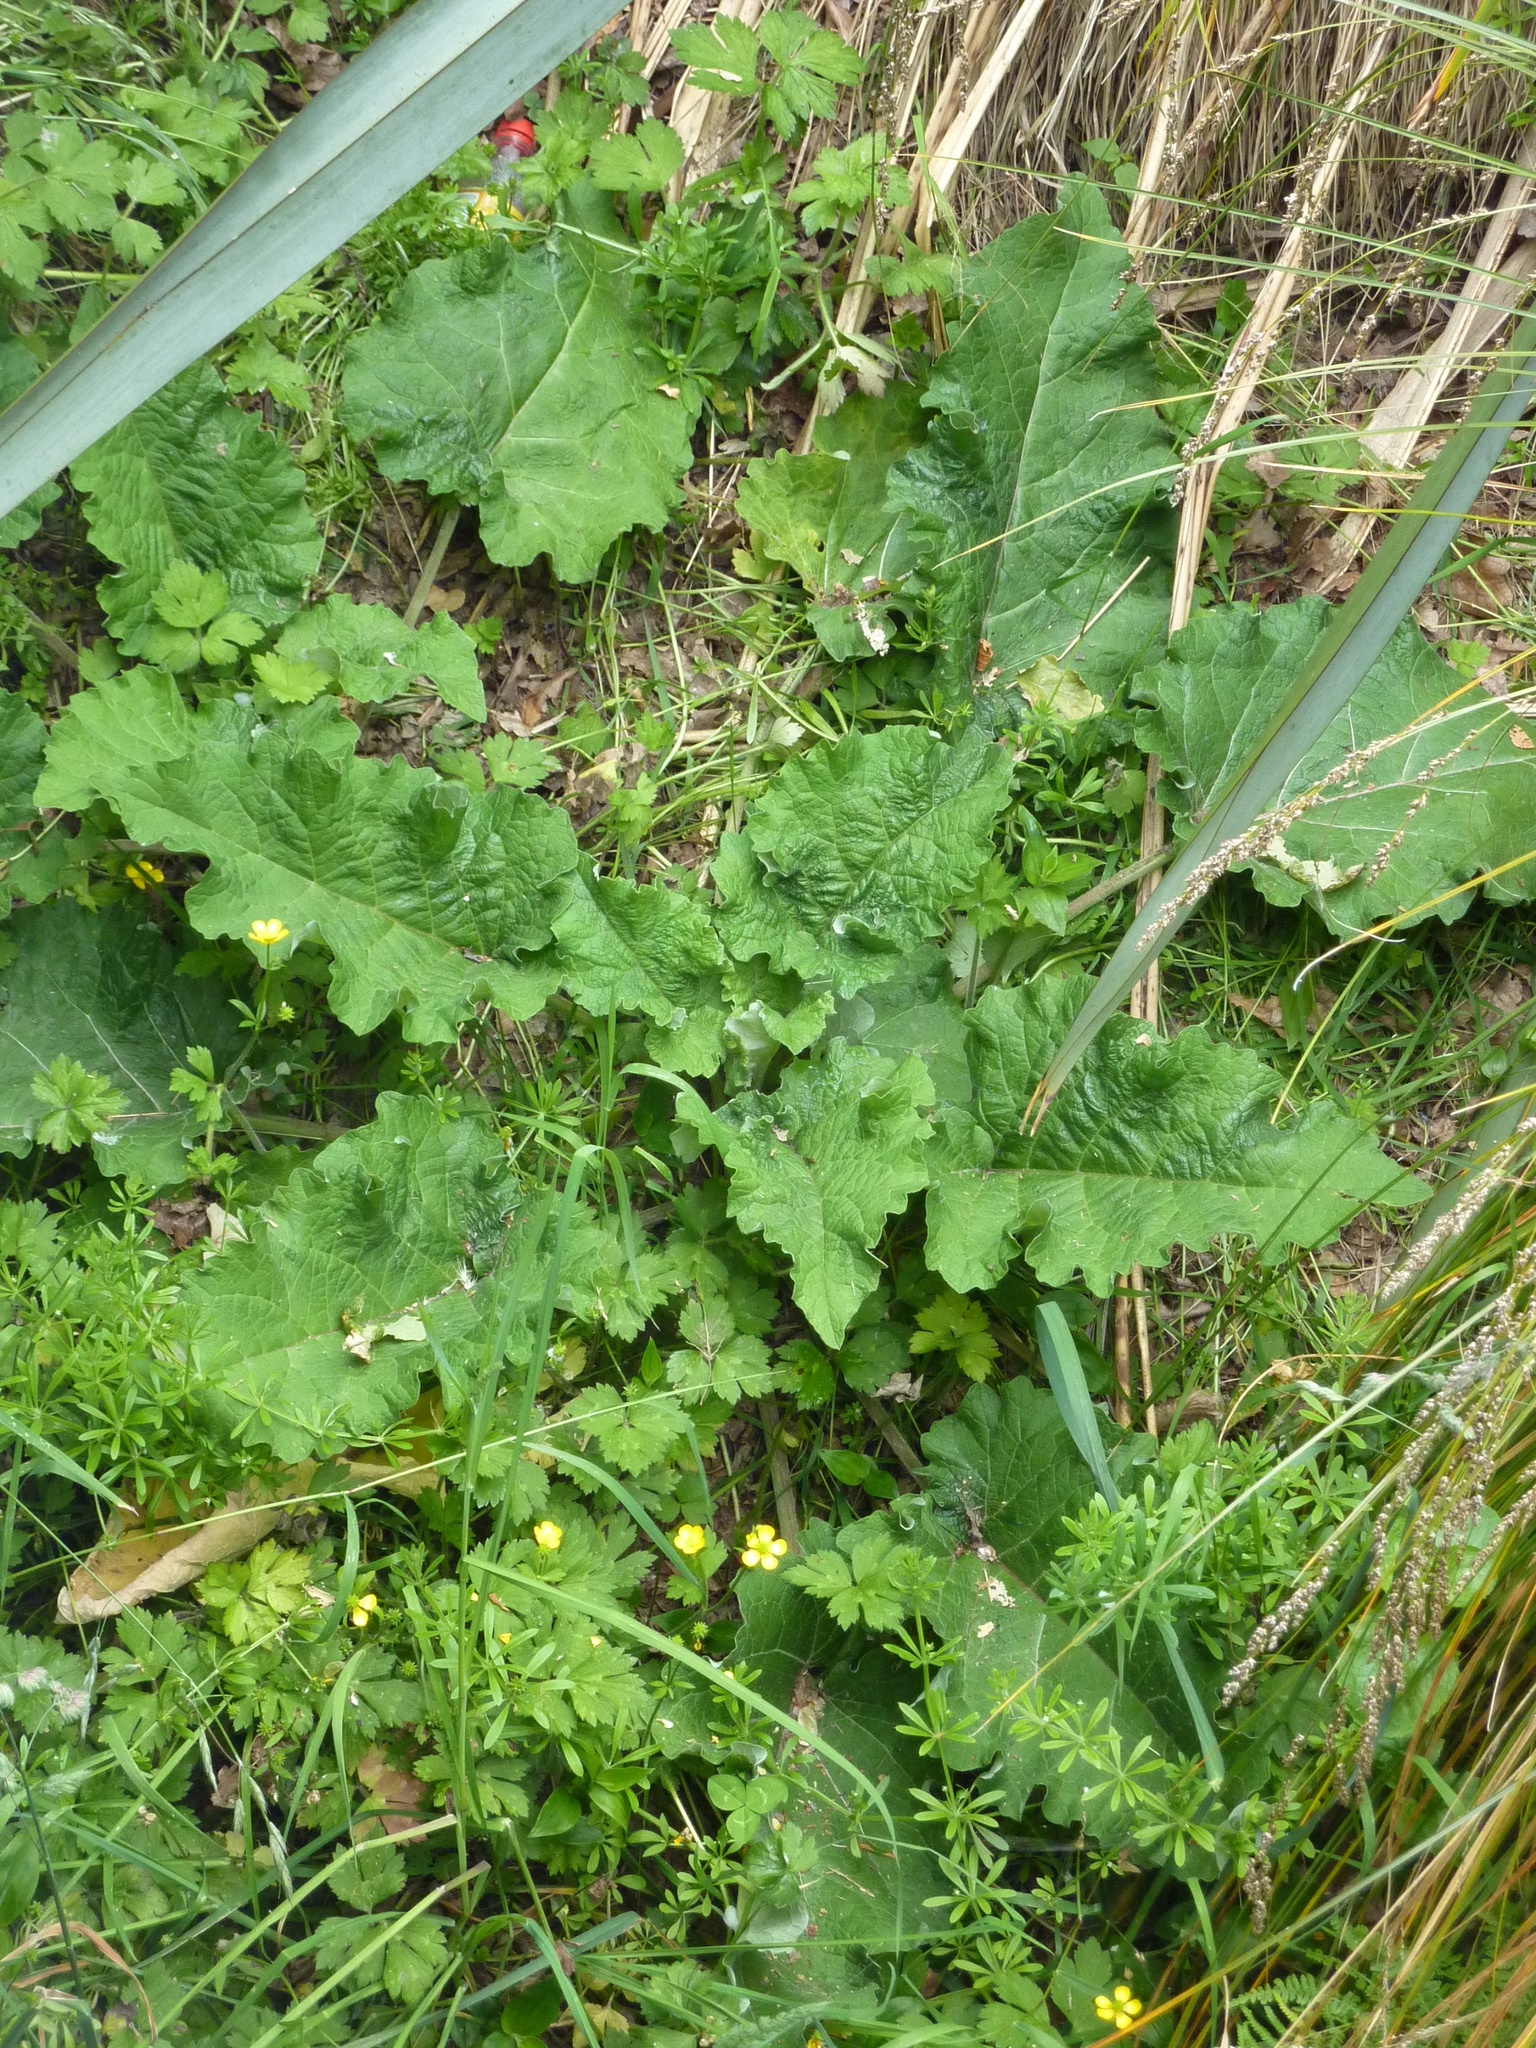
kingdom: Plantae
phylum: Tracheophyta
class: Magnoliopsida
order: Asterales
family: Asteraceae
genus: Arctium
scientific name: Arctium minus
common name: Lesser burdock
